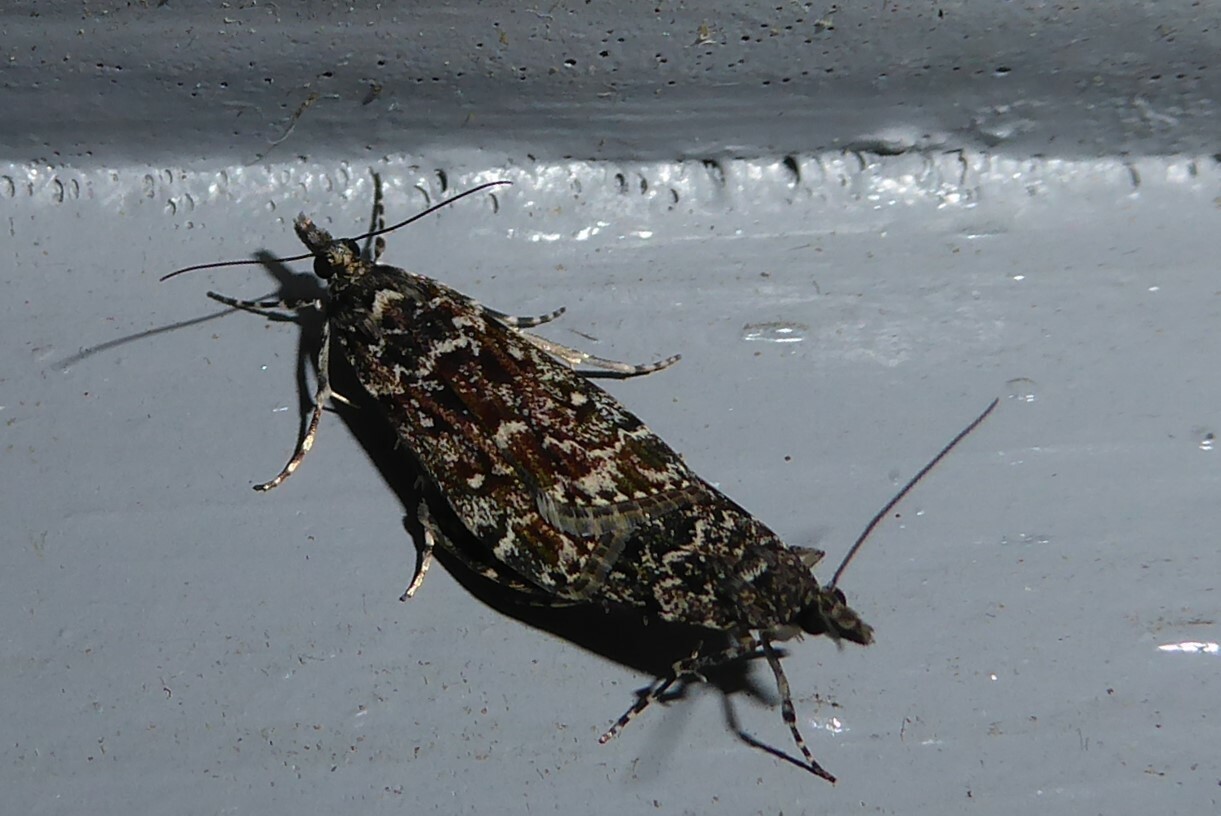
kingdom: Animalia
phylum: Arthropoda
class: Insecta
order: Lepidoptera
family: Crambidae
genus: Eudonia
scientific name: Eudonia philerga
